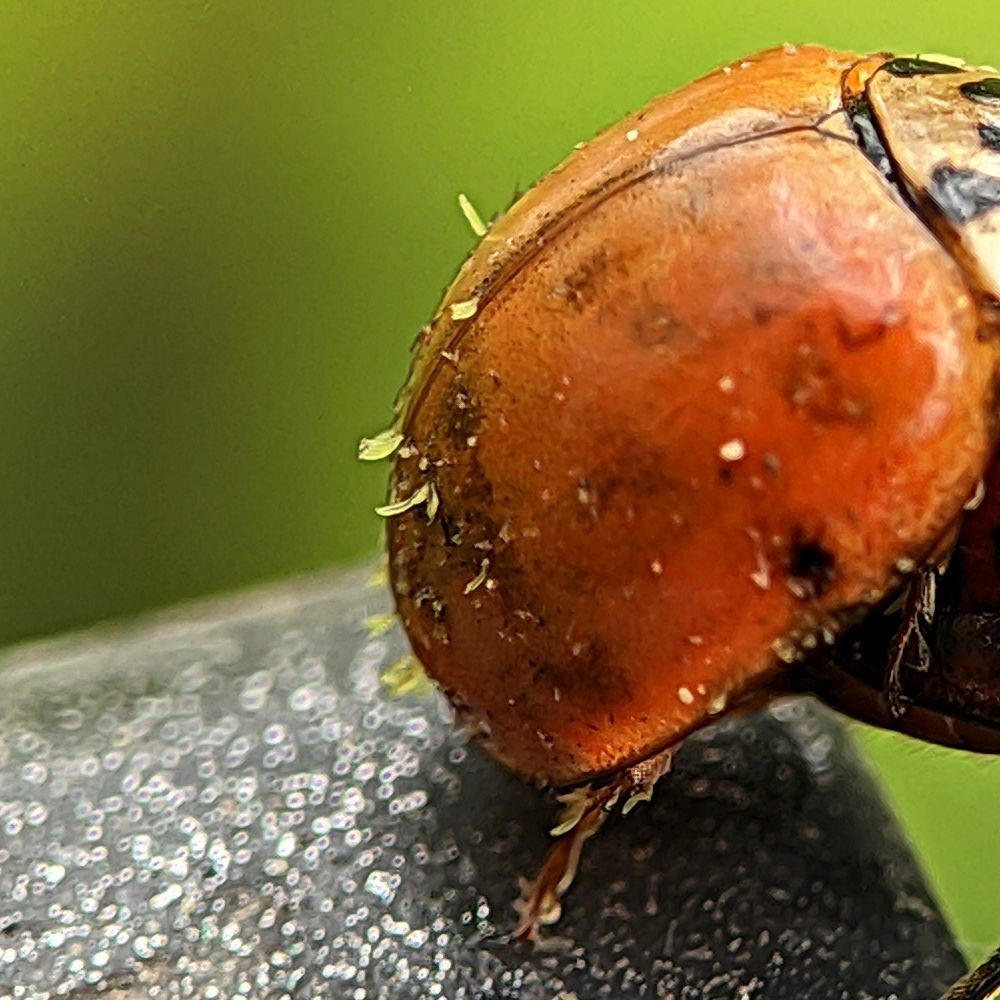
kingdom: Fungi
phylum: Ascomycota
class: Laboulbeniomycetes
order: Laboulbeniales
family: Laboulbeniaceae
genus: Hesperomyces
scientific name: Hesperomyces harmoniae
